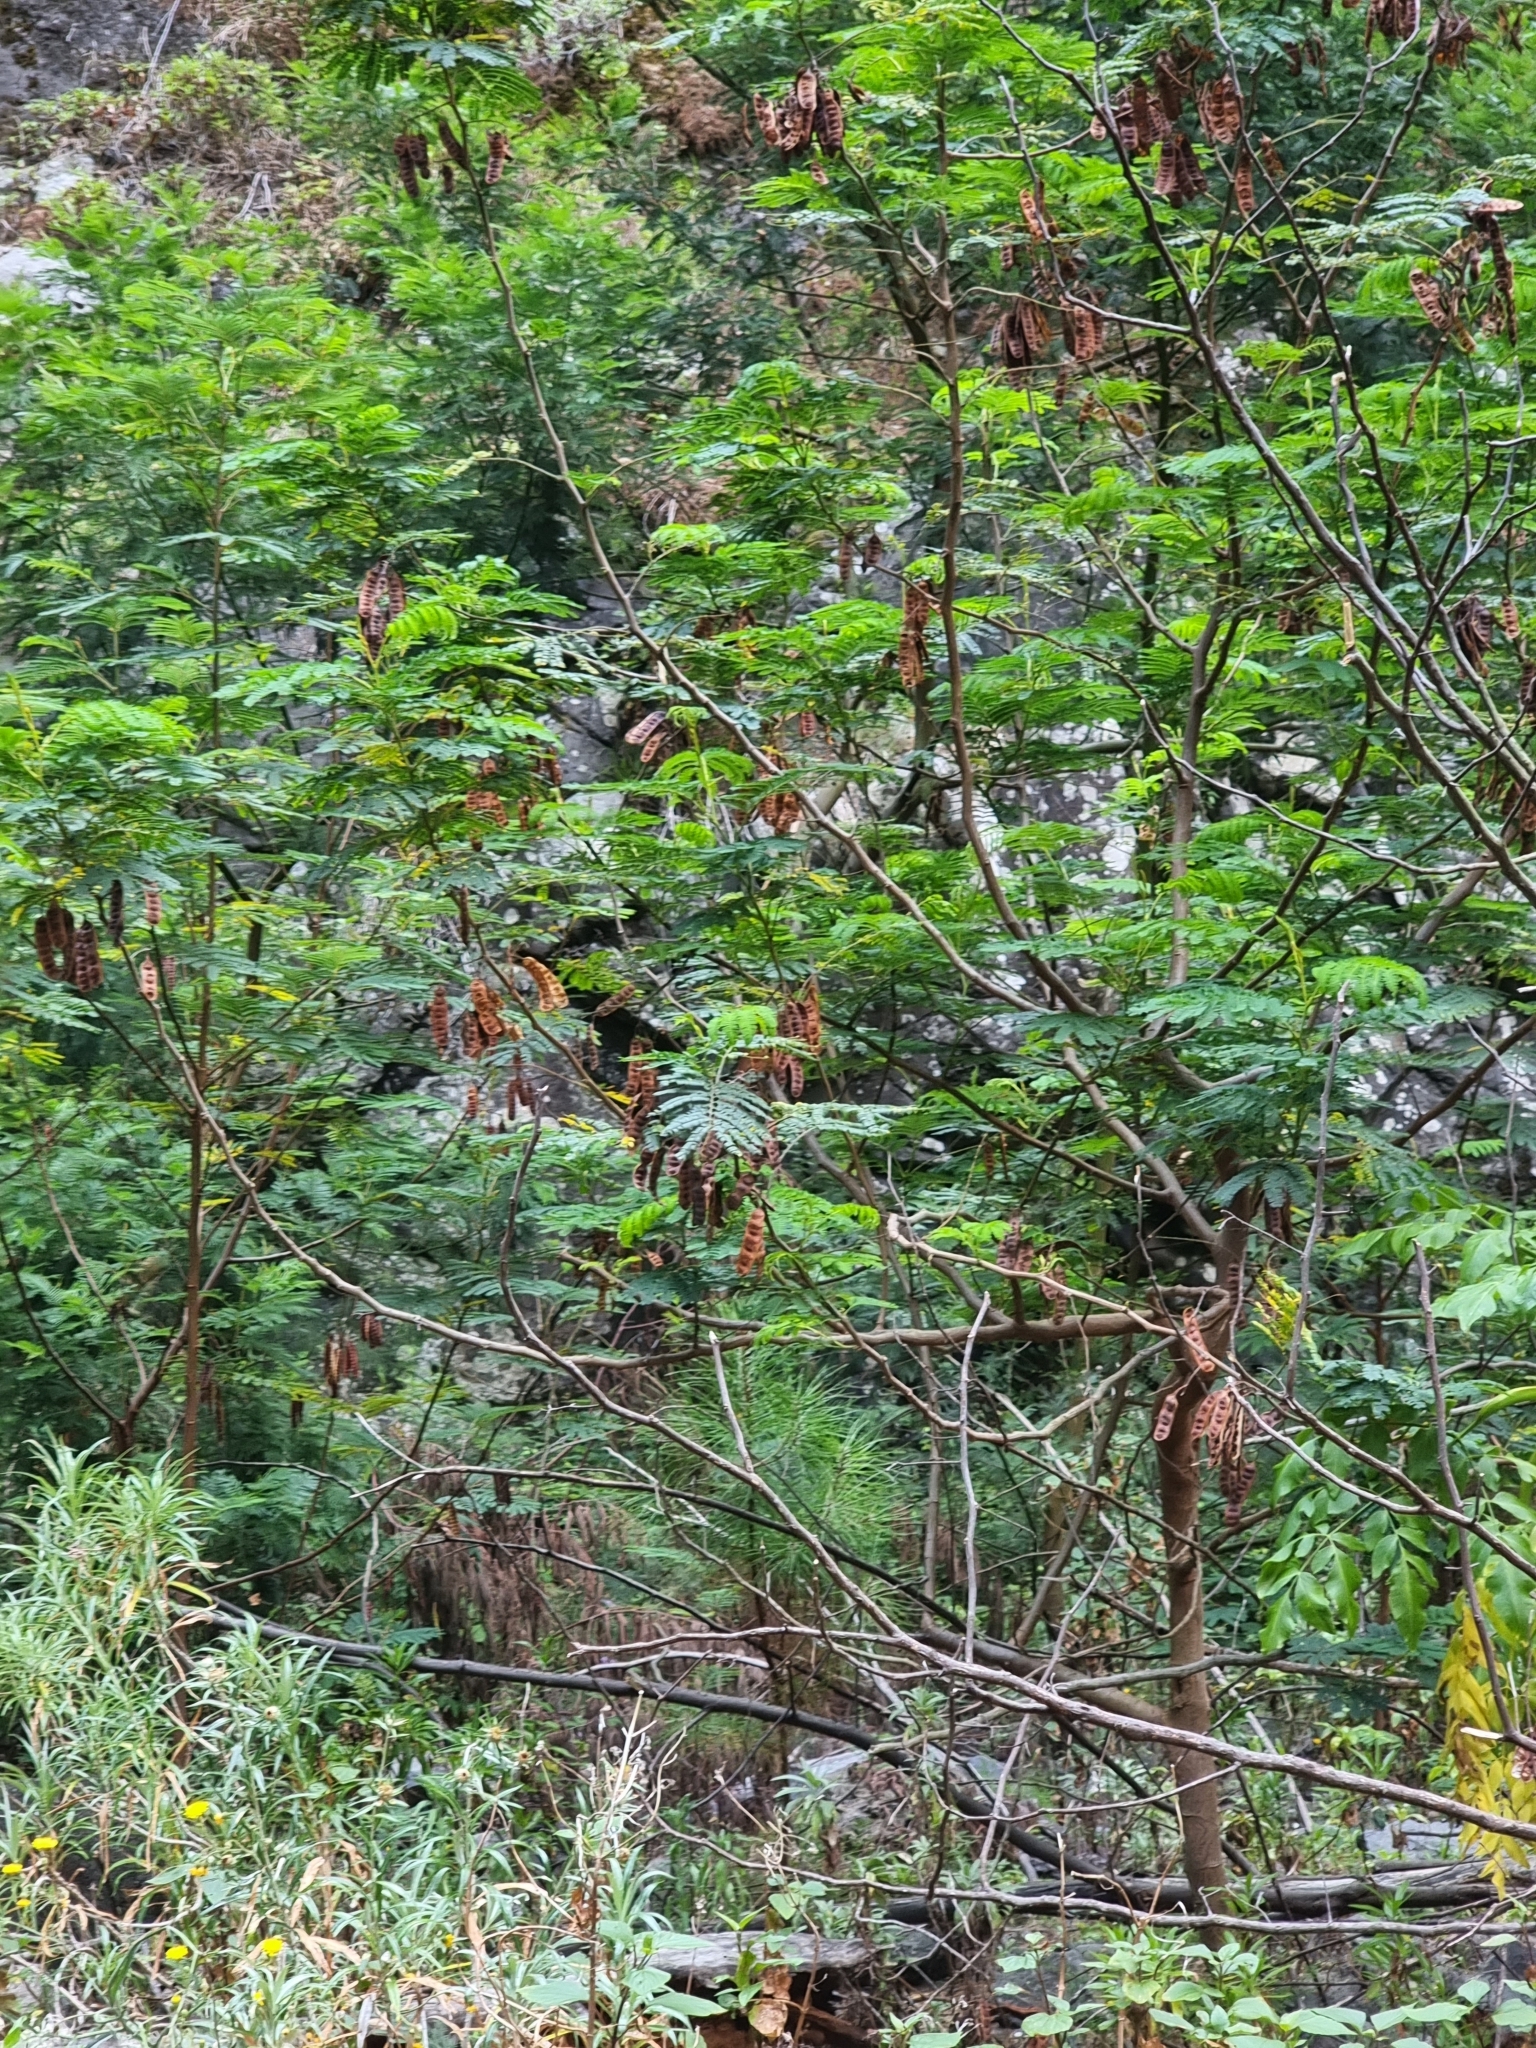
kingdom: Plantae
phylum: Tracheophyta
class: Magnoliopsida
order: Fabales
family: Fabaceae
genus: Paraserianthes
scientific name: Paraserianthes lophantha
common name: Plume albizia
